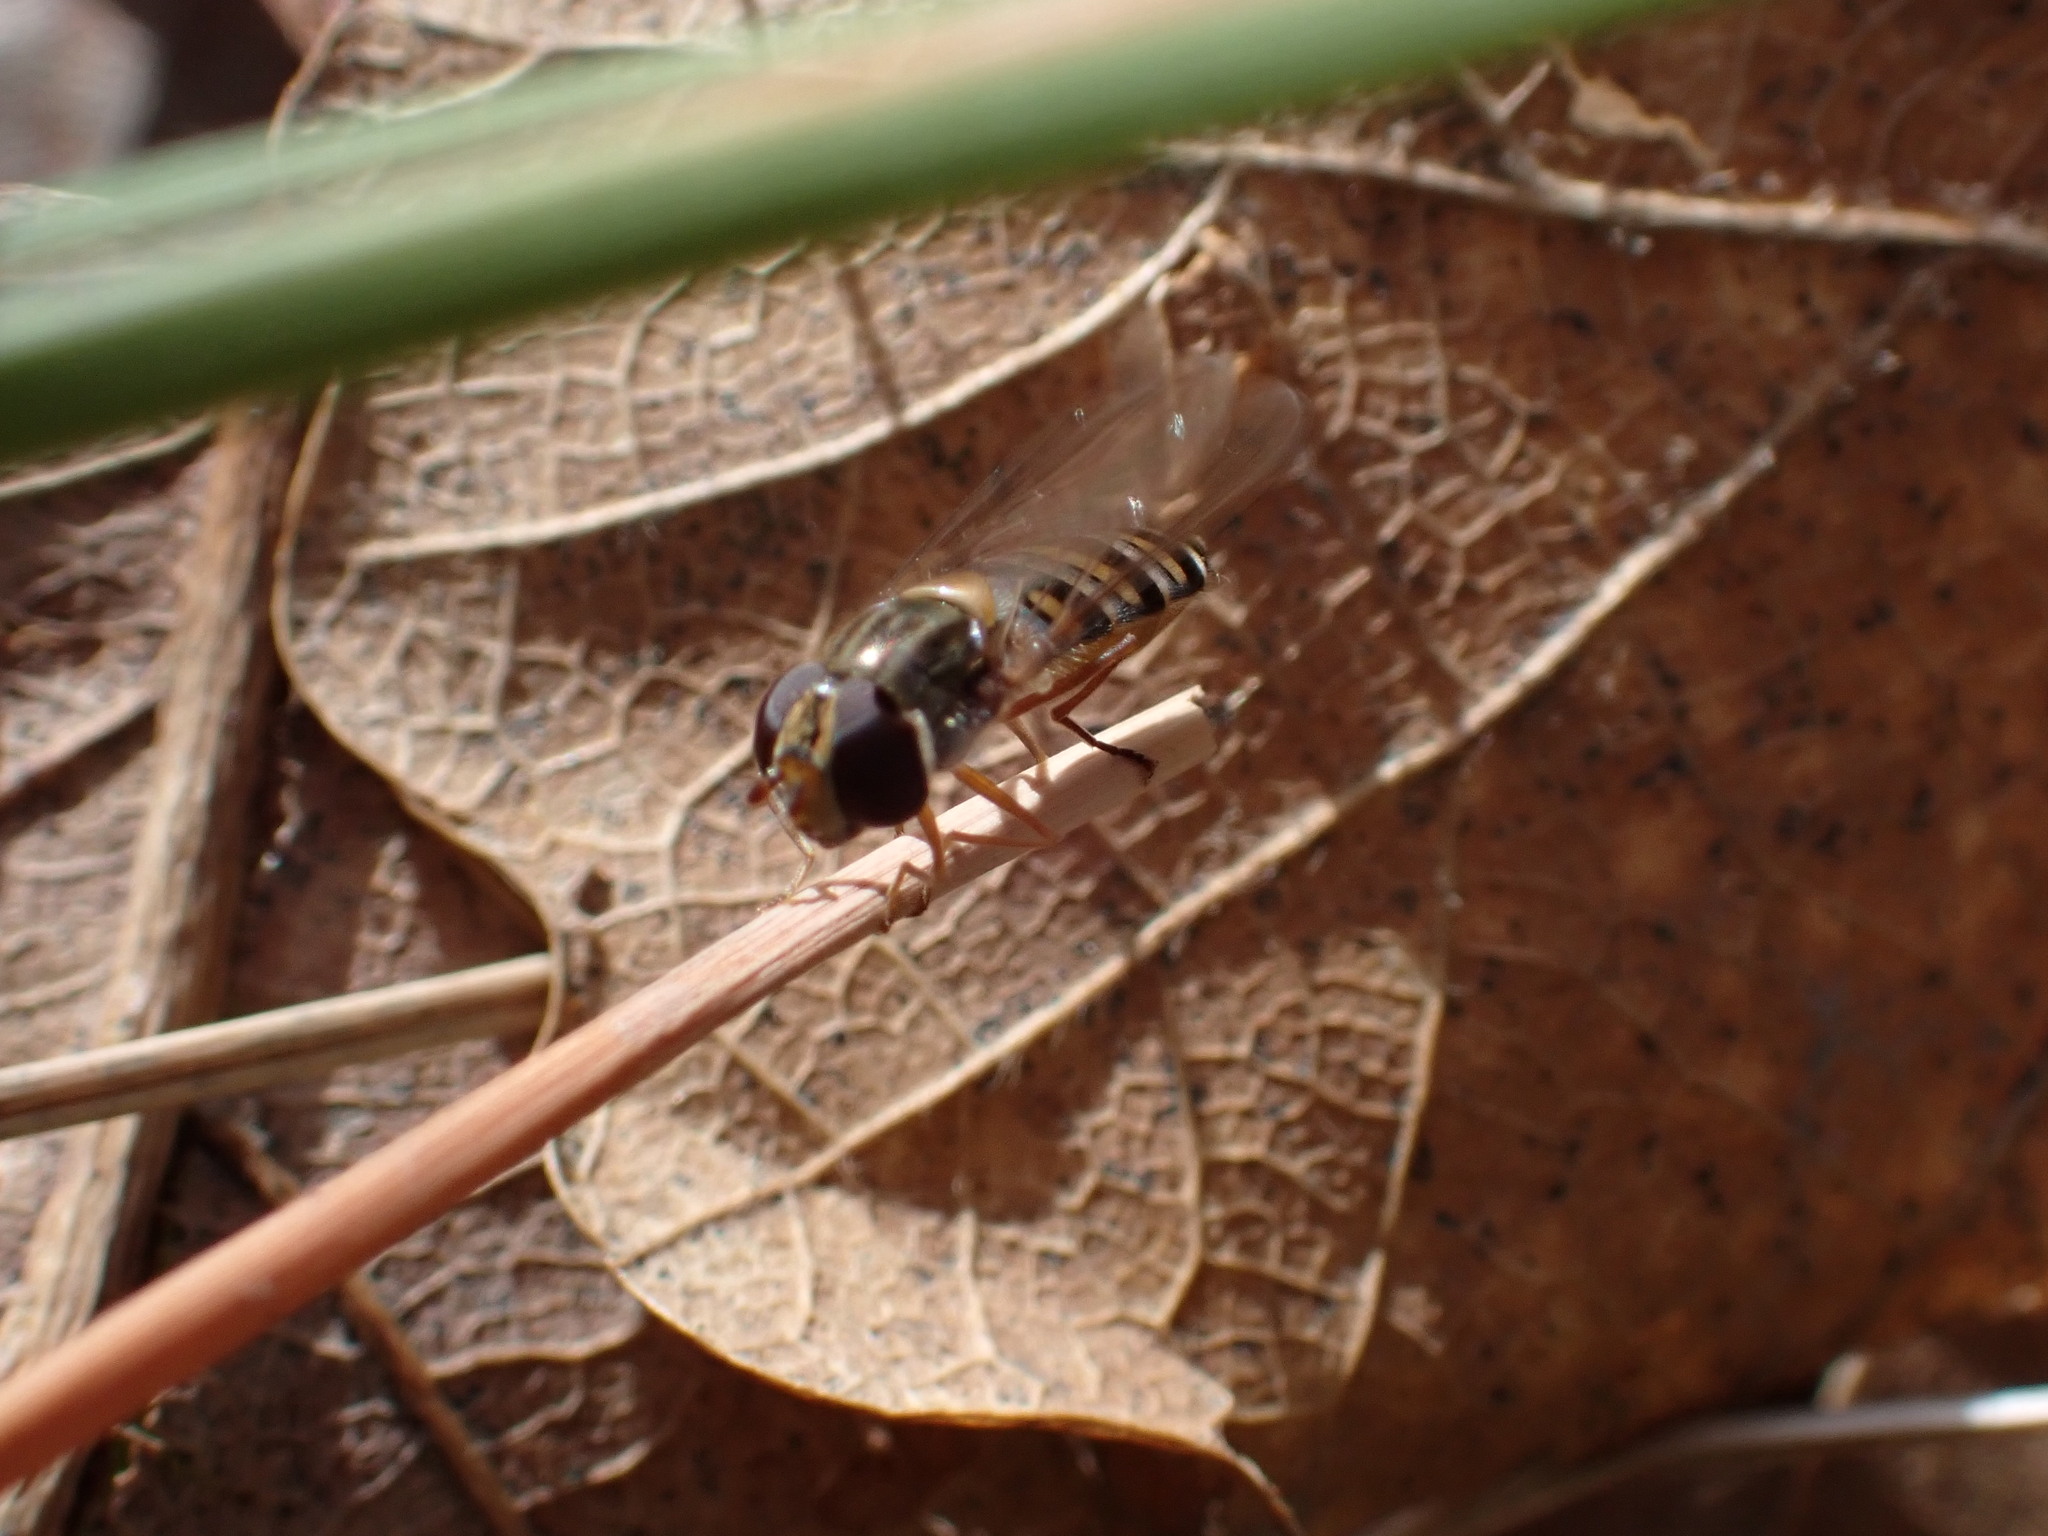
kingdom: Animalia
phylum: Arthropoda
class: Insecta
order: Diptera
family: Syrphidae
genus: Episyrphus
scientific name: Episyrphus balteatus
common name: Marmalade hoverfly
